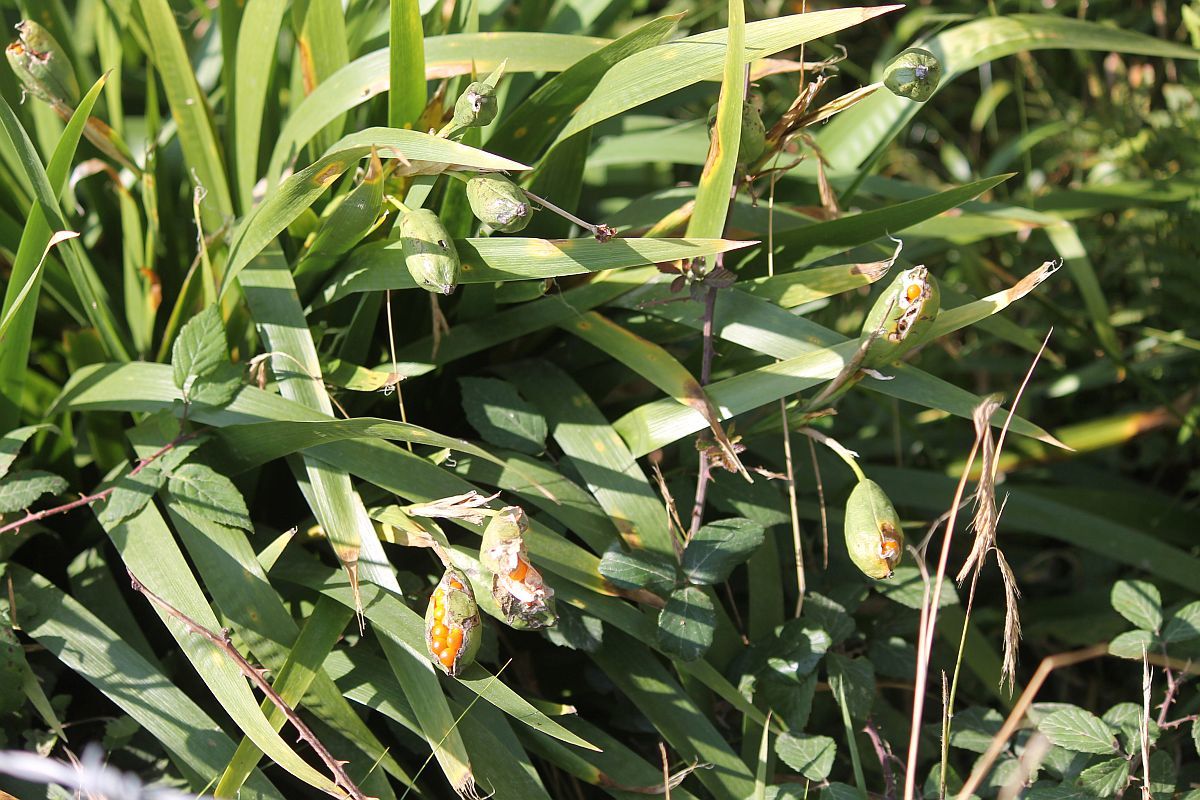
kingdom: Plantae
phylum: Tracheophyta
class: Liliopsida
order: Asparagales
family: Iridaceae
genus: Iris
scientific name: Iris foetidissima
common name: Stinking iris
